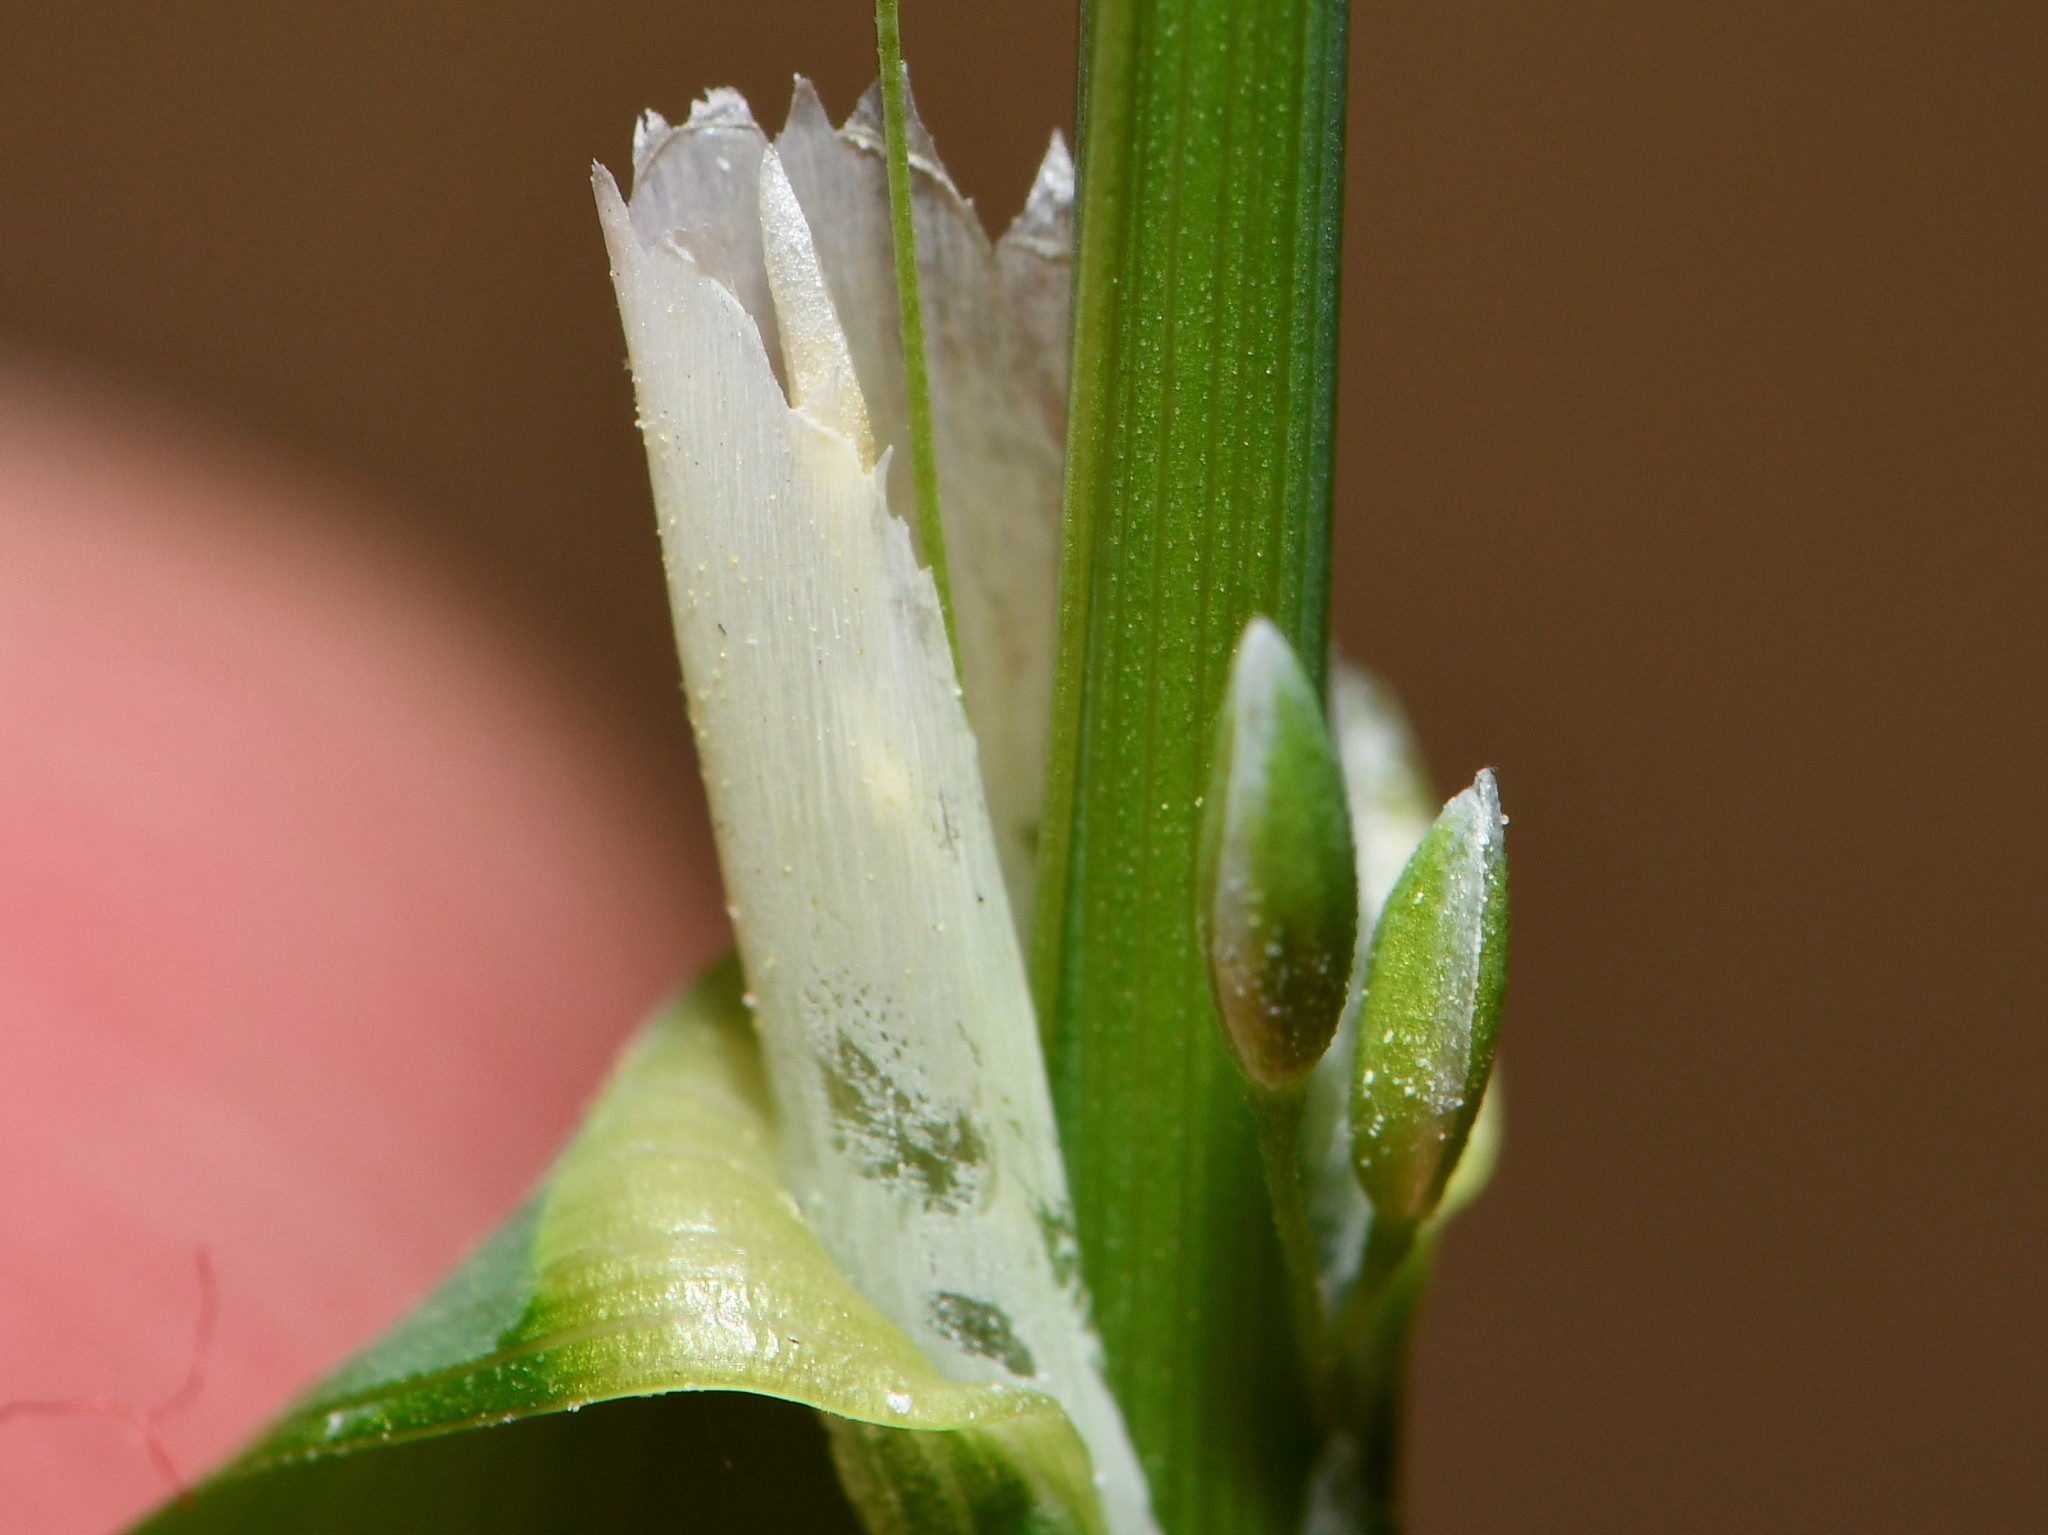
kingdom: Plantae
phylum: Tracheophyta
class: Liliopsida
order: Poales
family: Poaceae
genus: Milium
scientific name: Milium effusum
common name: Wood millet
